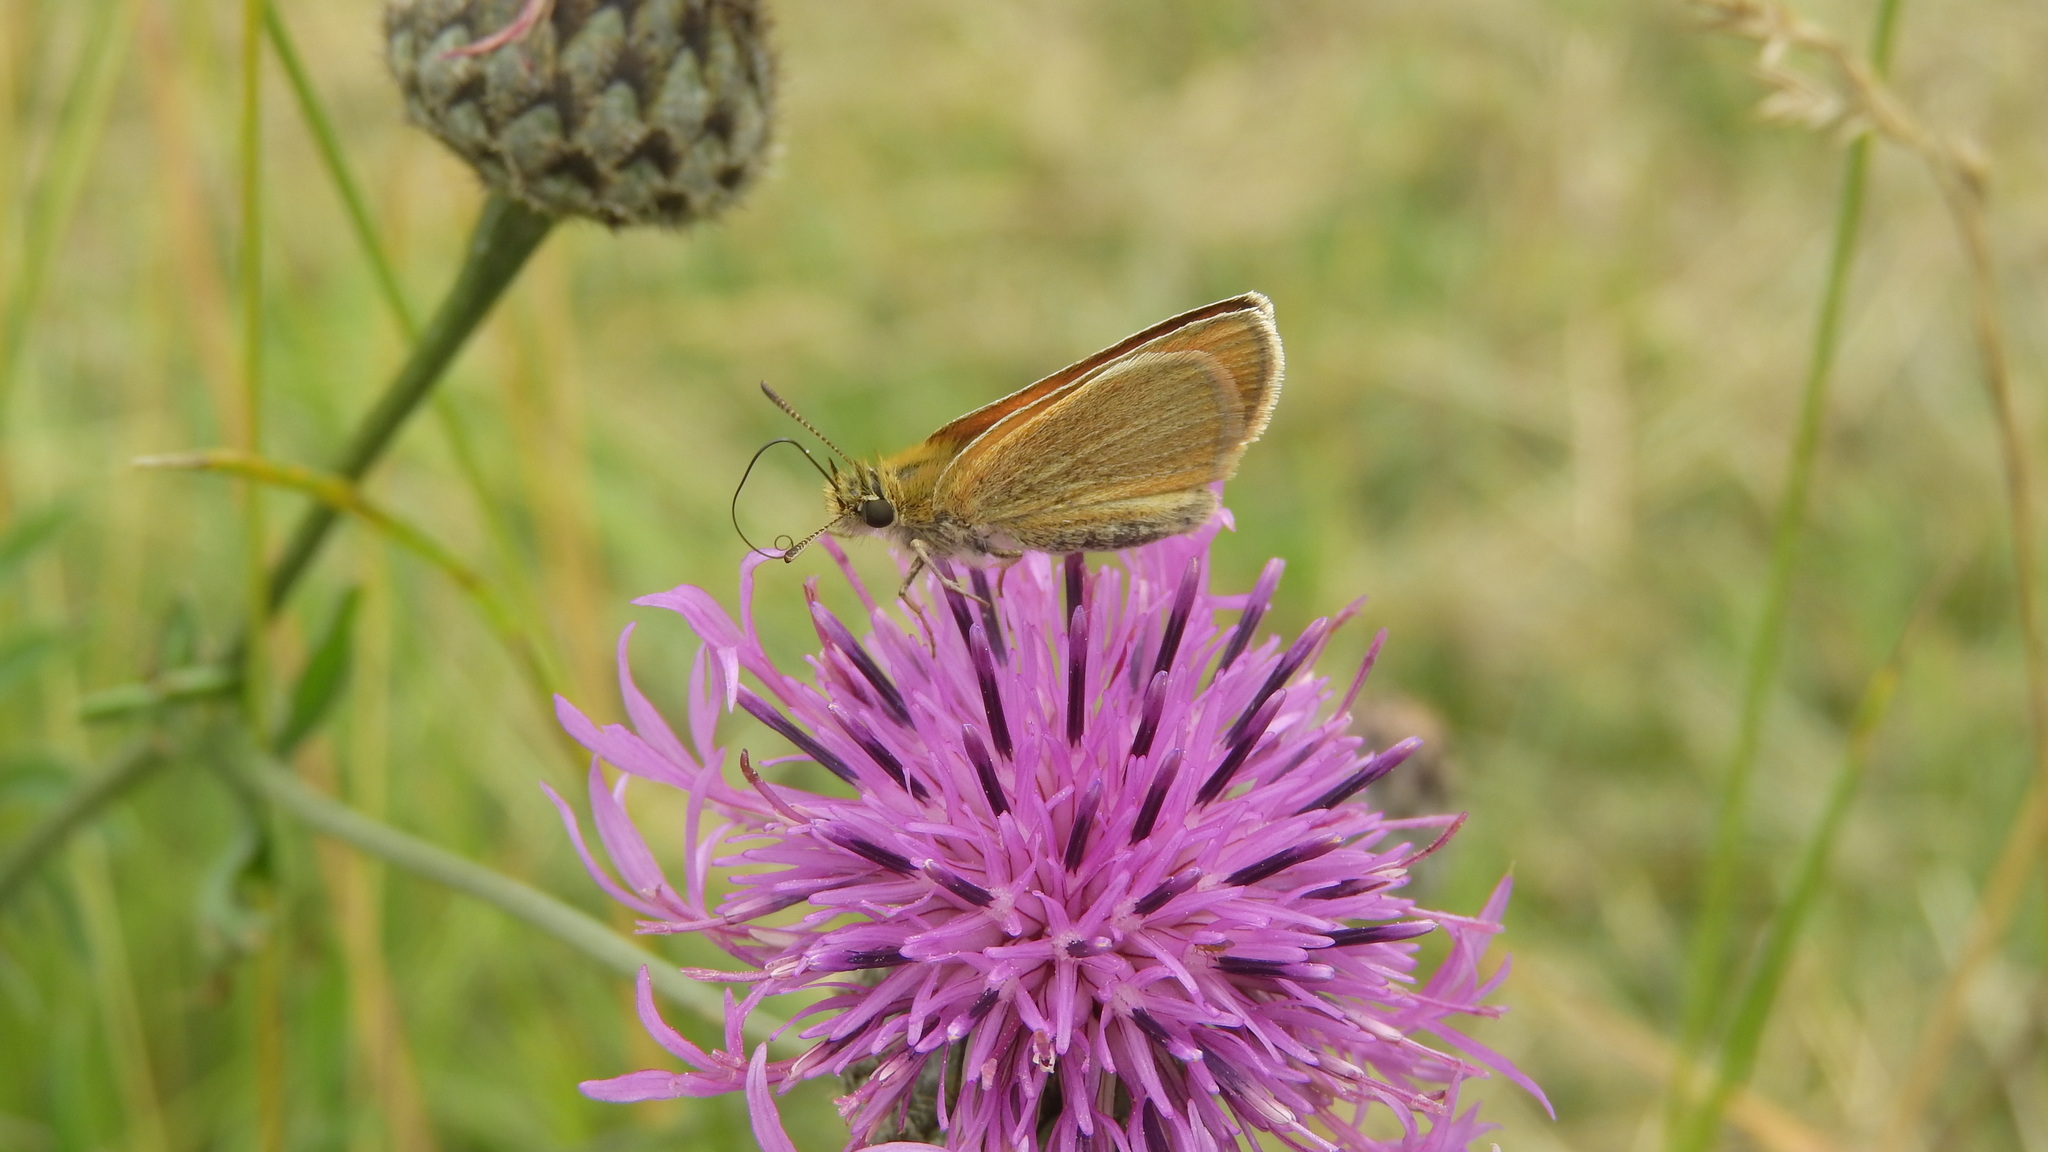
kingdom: Animalia
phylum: Arthropoda
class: Insecta
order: Lepidoptera
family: Hesperiidae
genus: Thymelicus
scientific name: Thymelicus lineola
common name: Essex skipper
